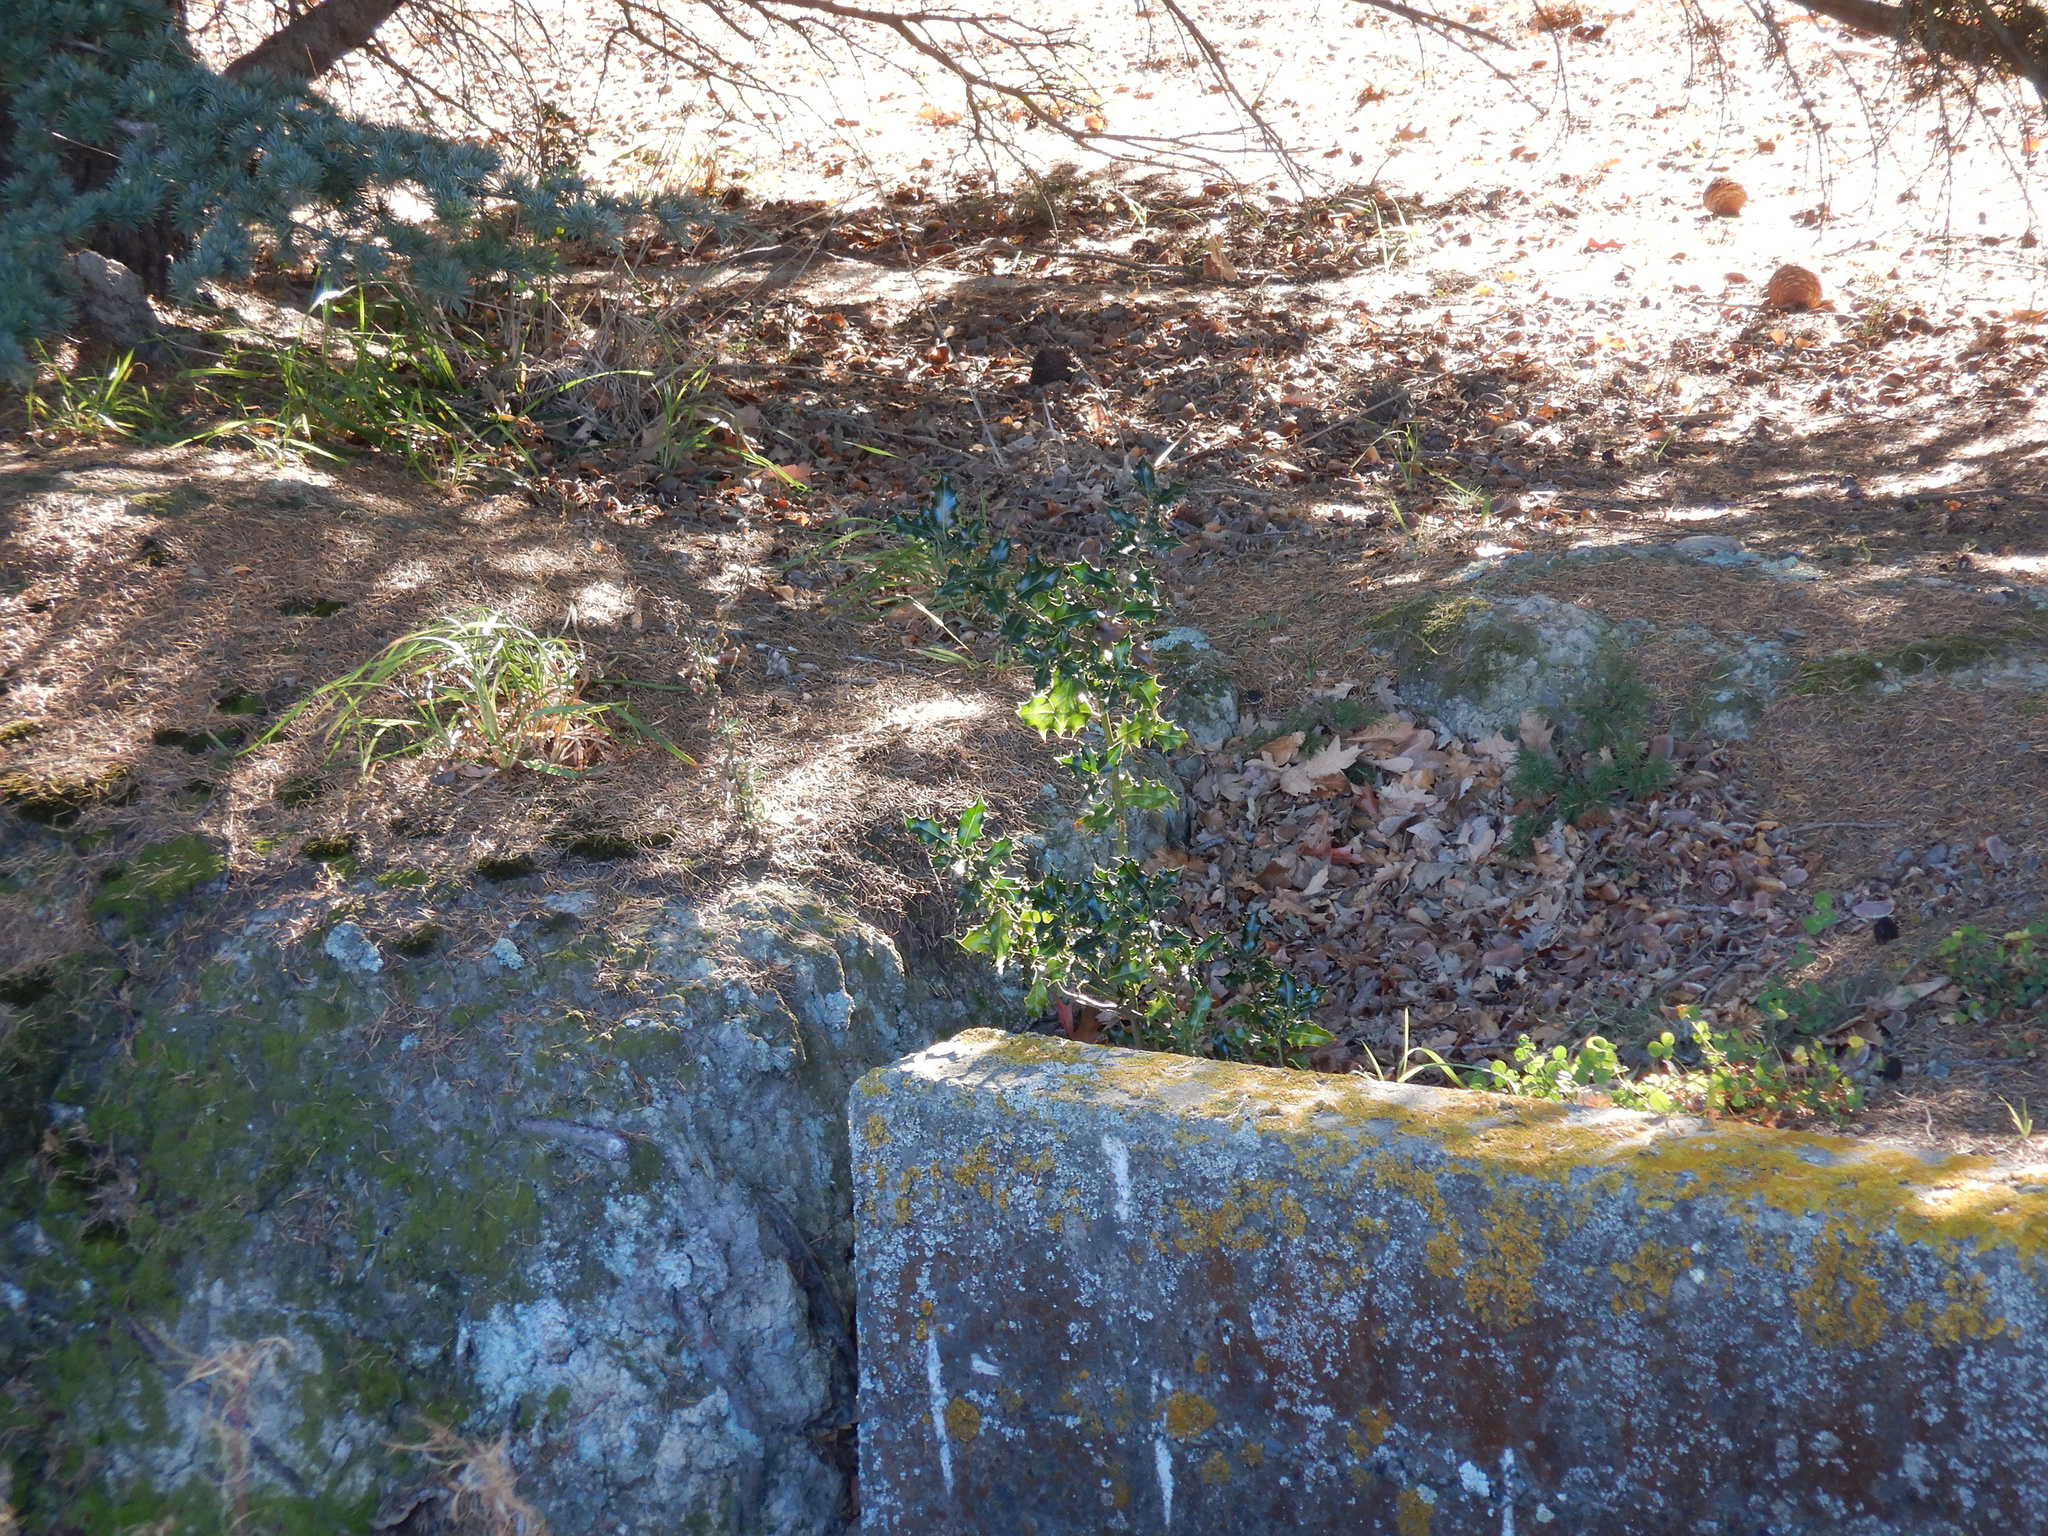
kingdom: Plantae
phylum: Tracheophyta
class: Magnoliopsida
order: Aquifoliales
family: Aquifoliaceae
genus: Ilex
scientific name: Ilex aquifolium
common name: English holly
